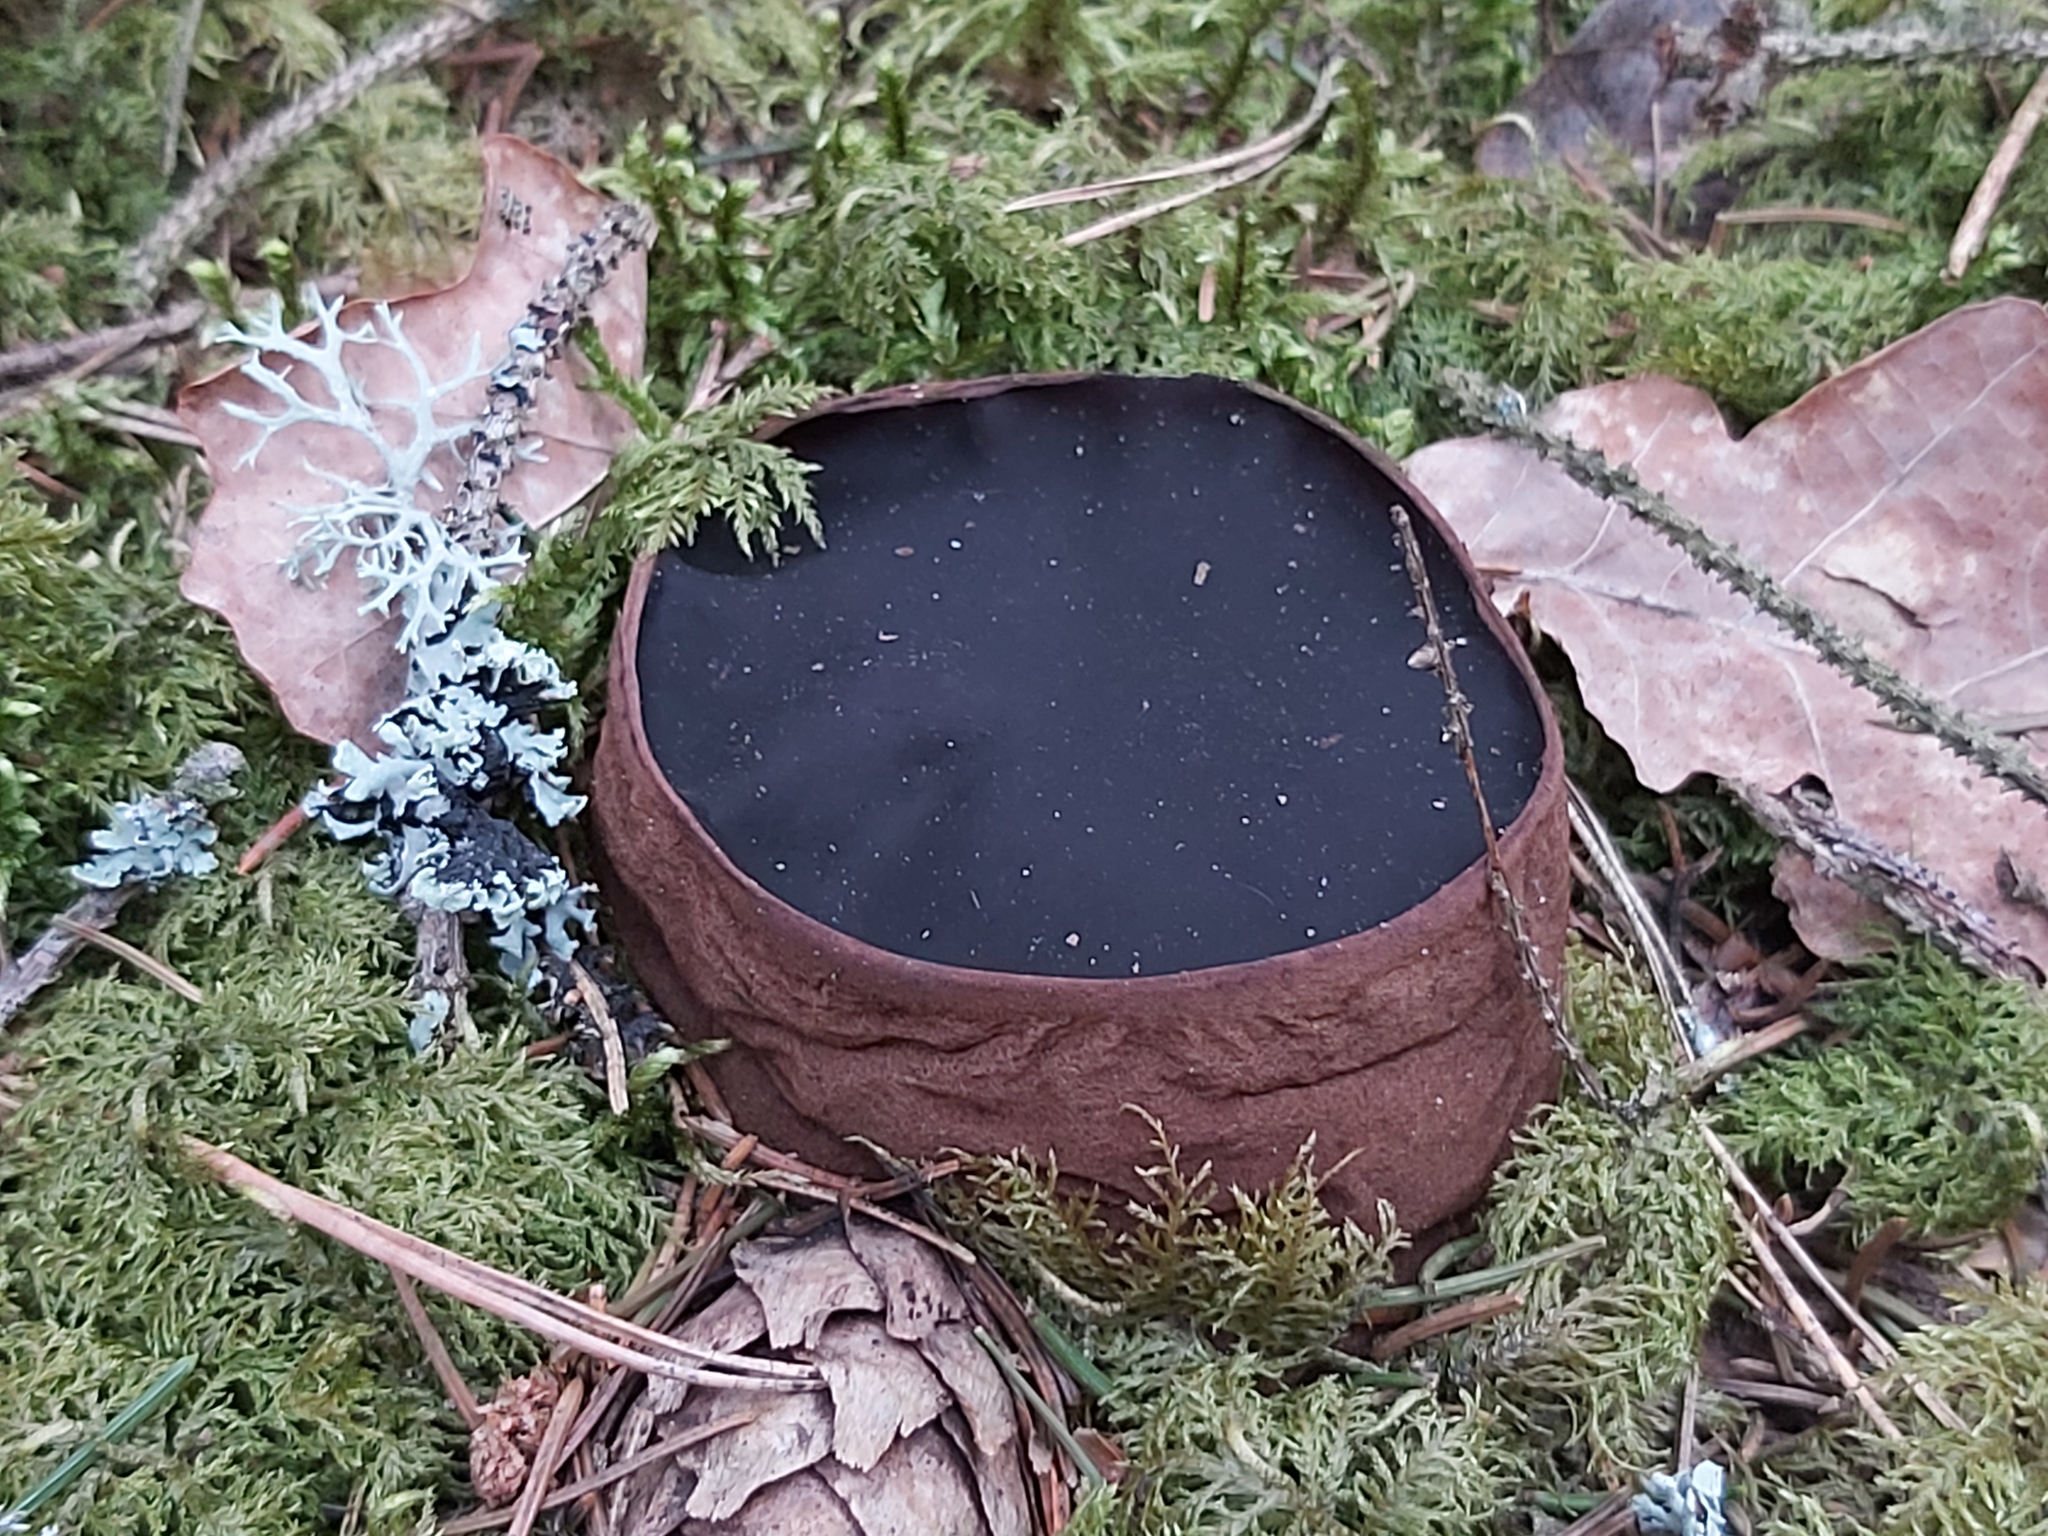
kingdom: Fungi
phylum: Ascomycota
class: Pezizomycetes
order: Pezizales
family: Sarcosomataceae
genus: Sarcosoma
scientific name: Sarcosoma globosum
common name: Charred-pancake cup
